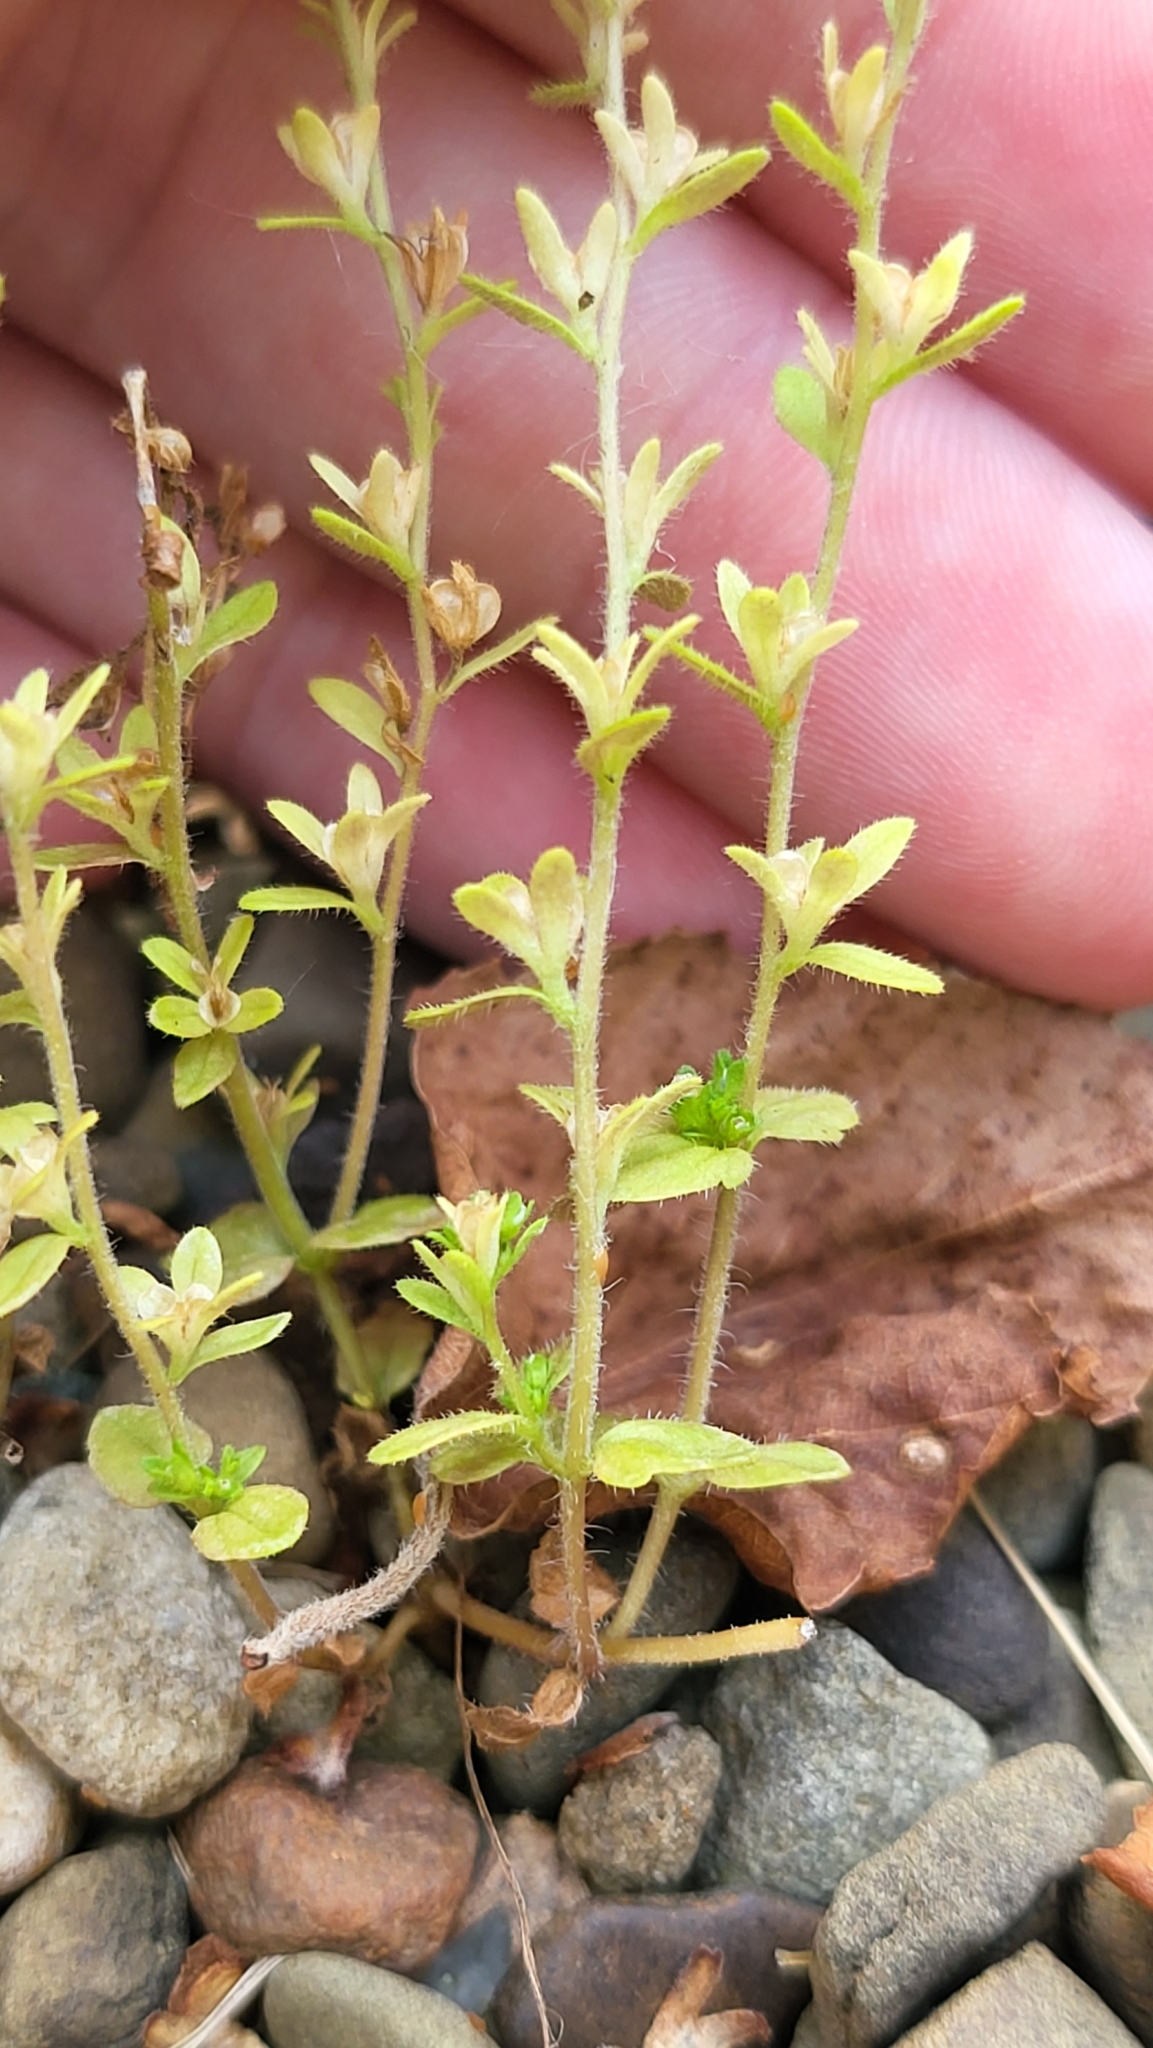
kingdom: Plantae
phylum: Tracheophyta
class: Magnoliopsida
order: Lamiales
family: Plantaginaceae
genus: Veronica
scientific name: Veronica arvensis
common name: Corn speedwell
